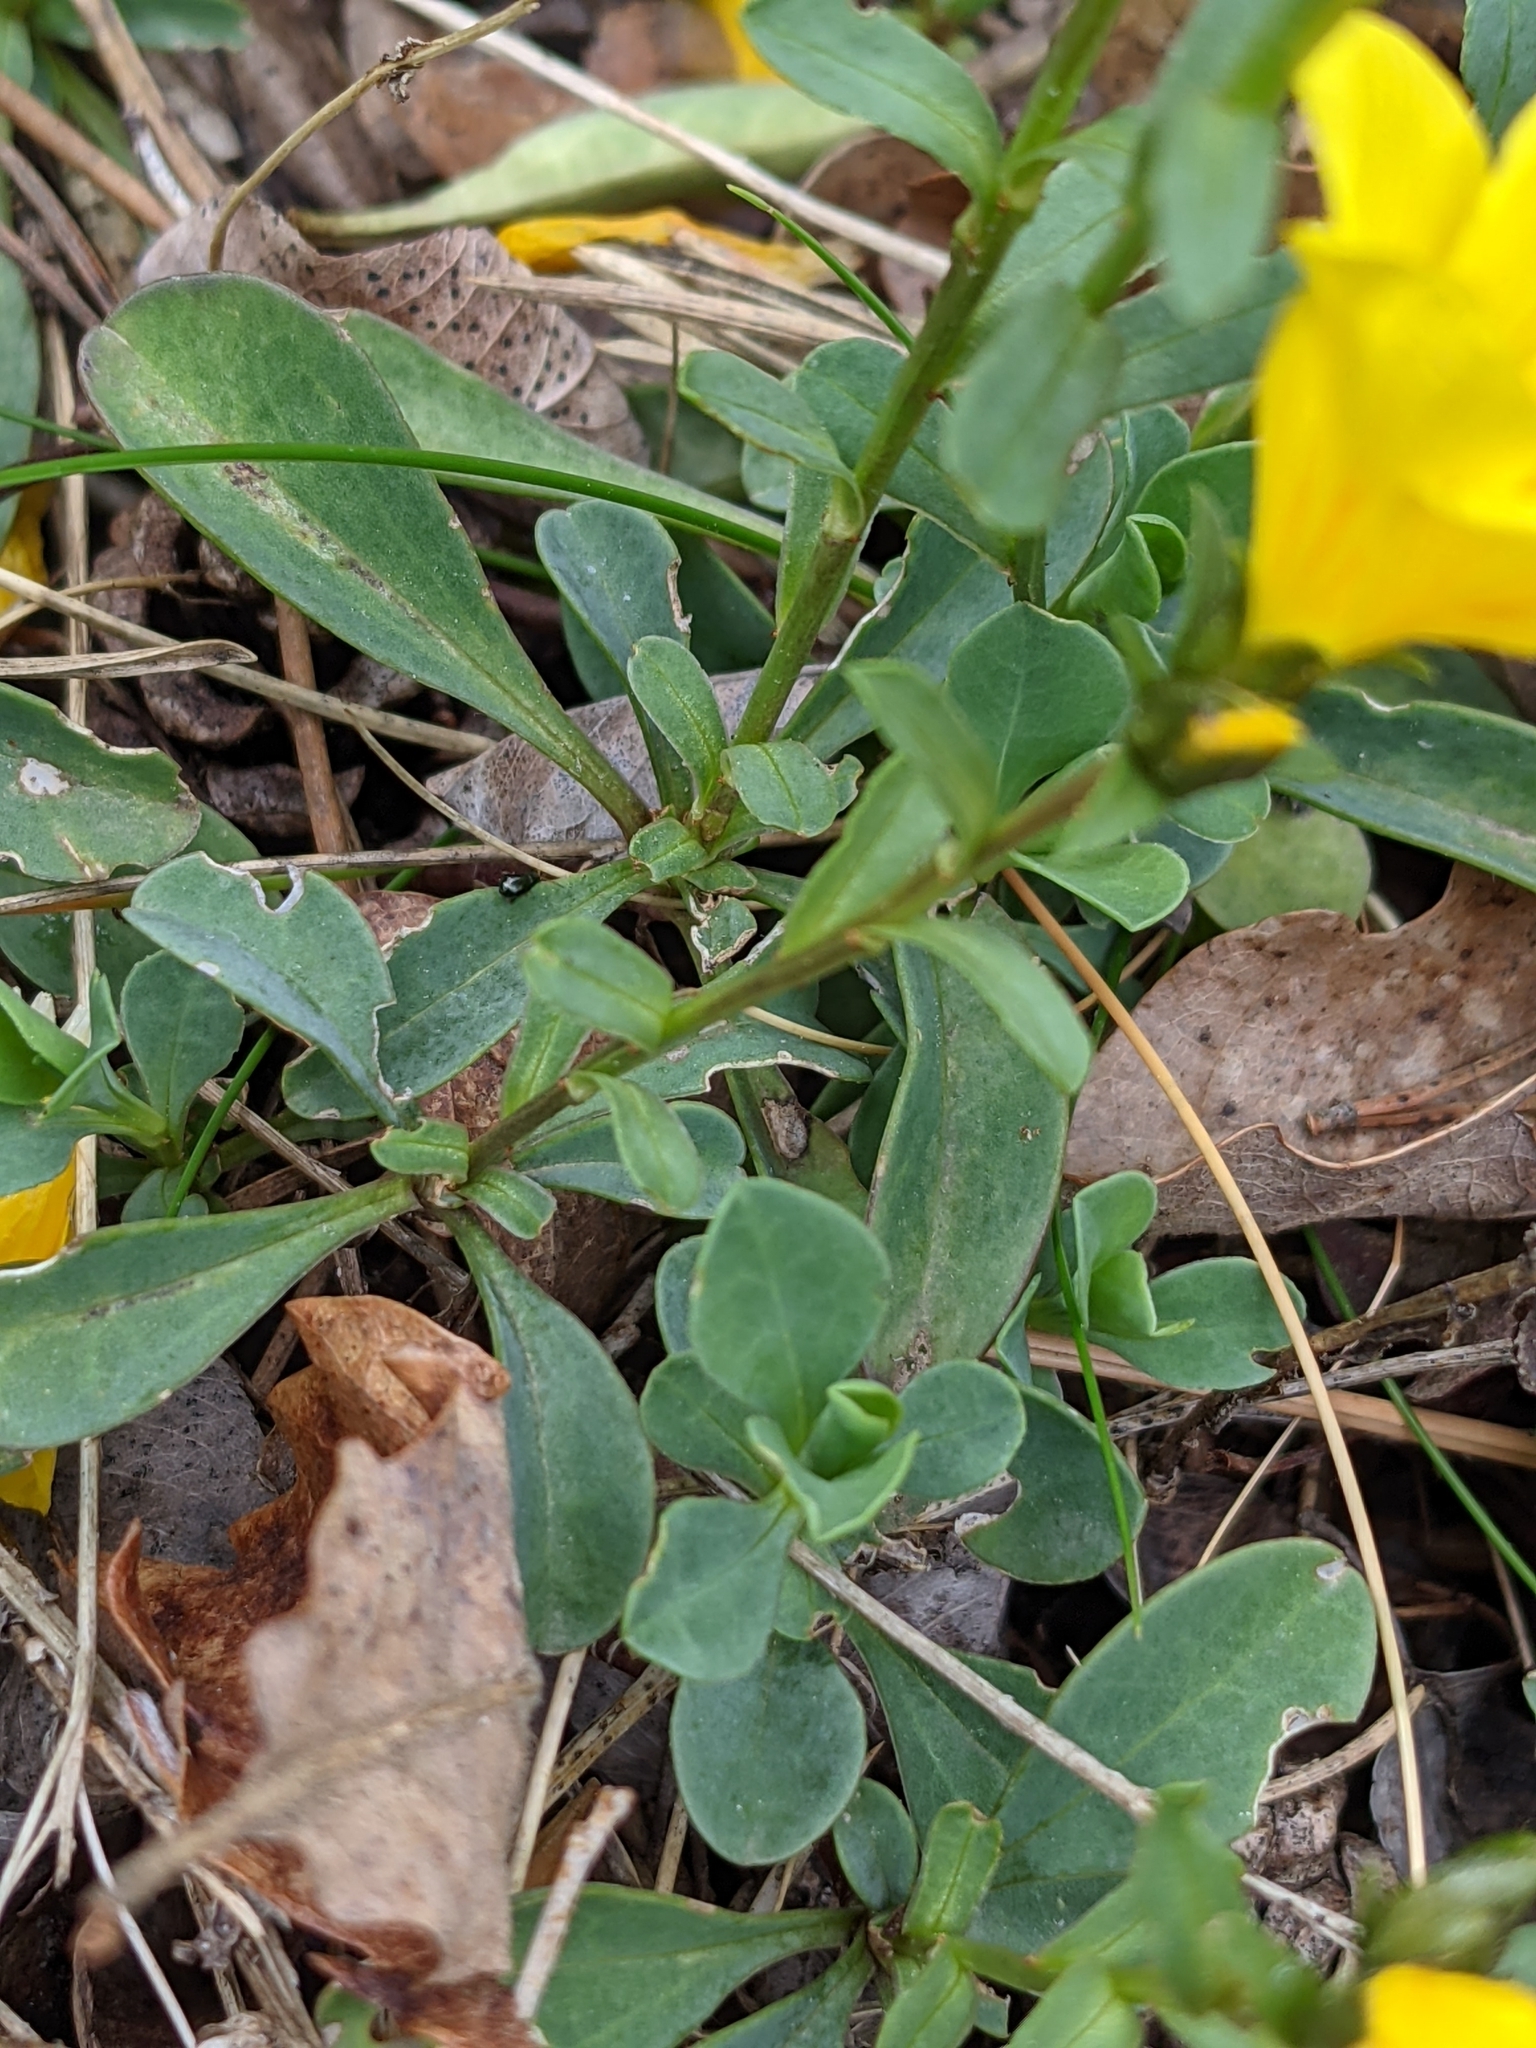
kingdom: Plantae
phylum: Tracheophyta
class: Magnoliopsida
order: Malpighiales
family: Linaceae
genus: Linum
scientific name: Linum campanulatum
